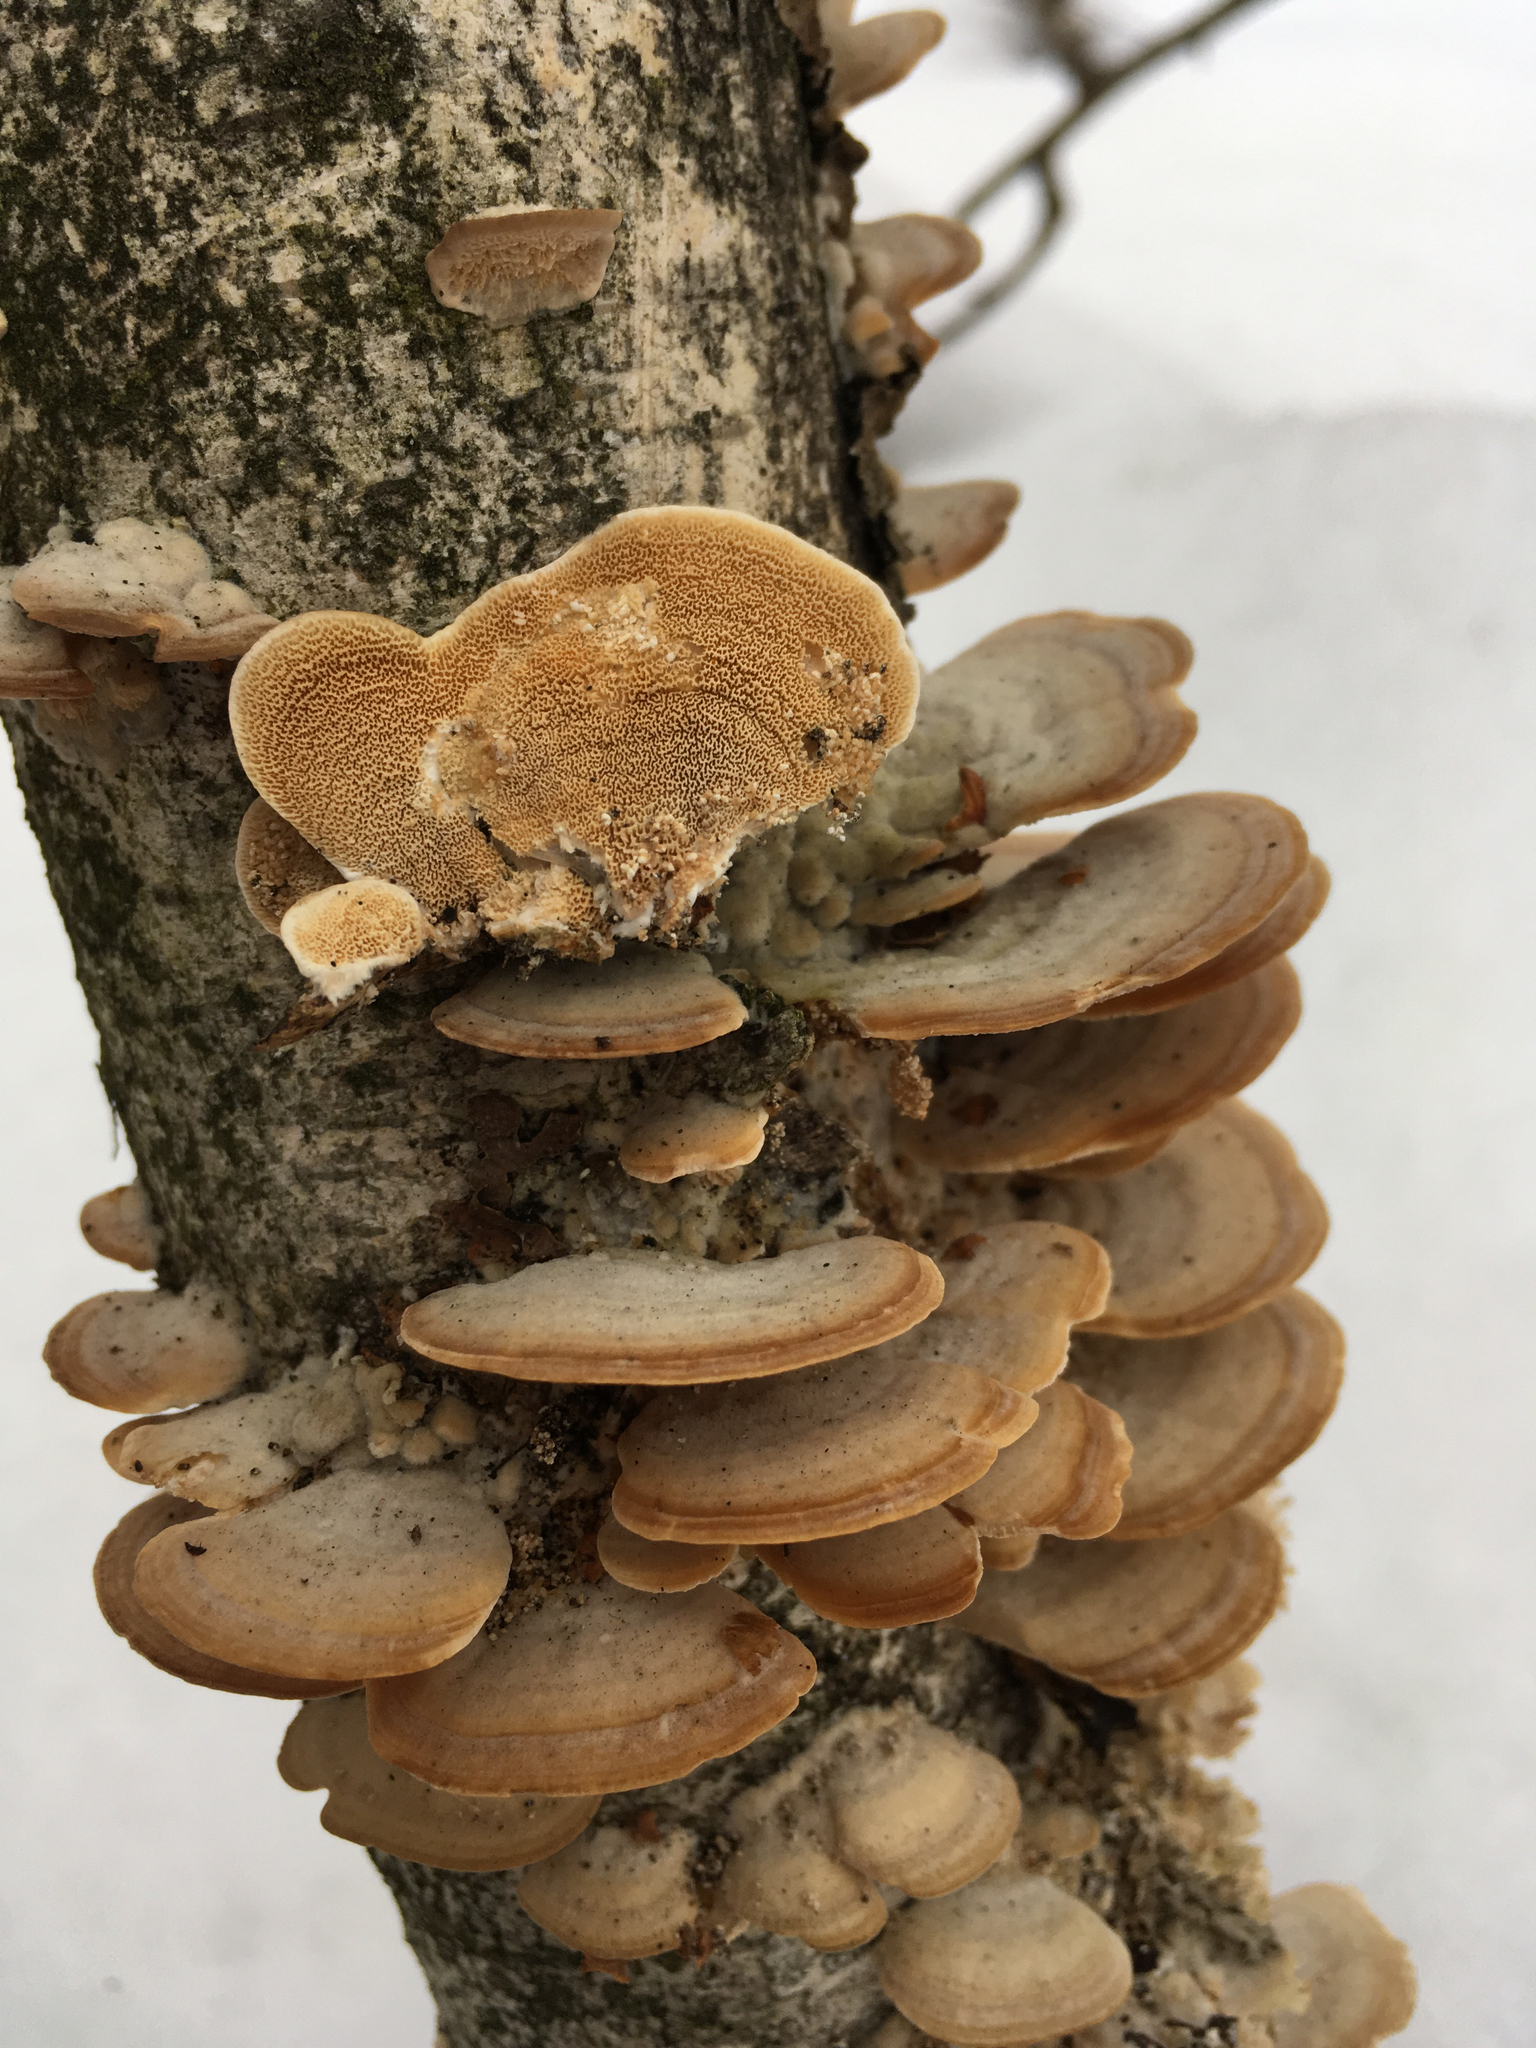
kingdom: Fungi
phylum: Basidiomycota
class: Agaricomycetes
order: Hymenochaetales
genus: Trichaptum
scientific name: Trichaptum biforme
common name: Violet-toothed polypore
